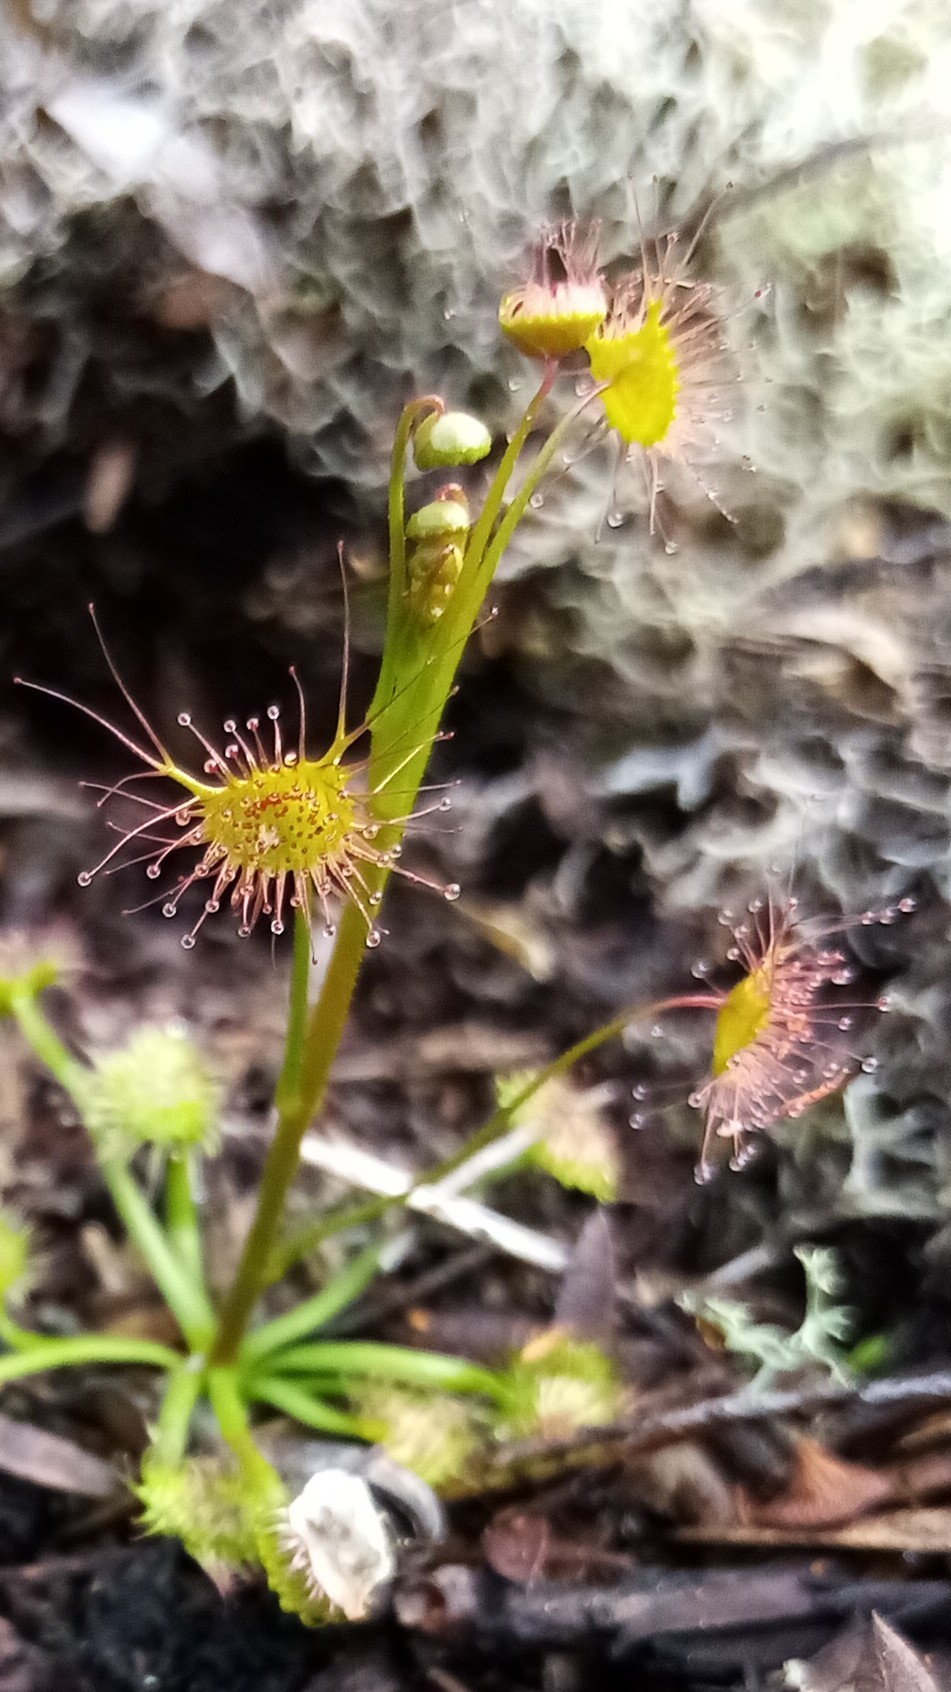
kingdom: Plantae
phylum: Tracheophyta
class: Magnoliopsida
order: Caryophyllales
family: Droseraceae
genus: Drosera
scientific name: Drosera peltata
